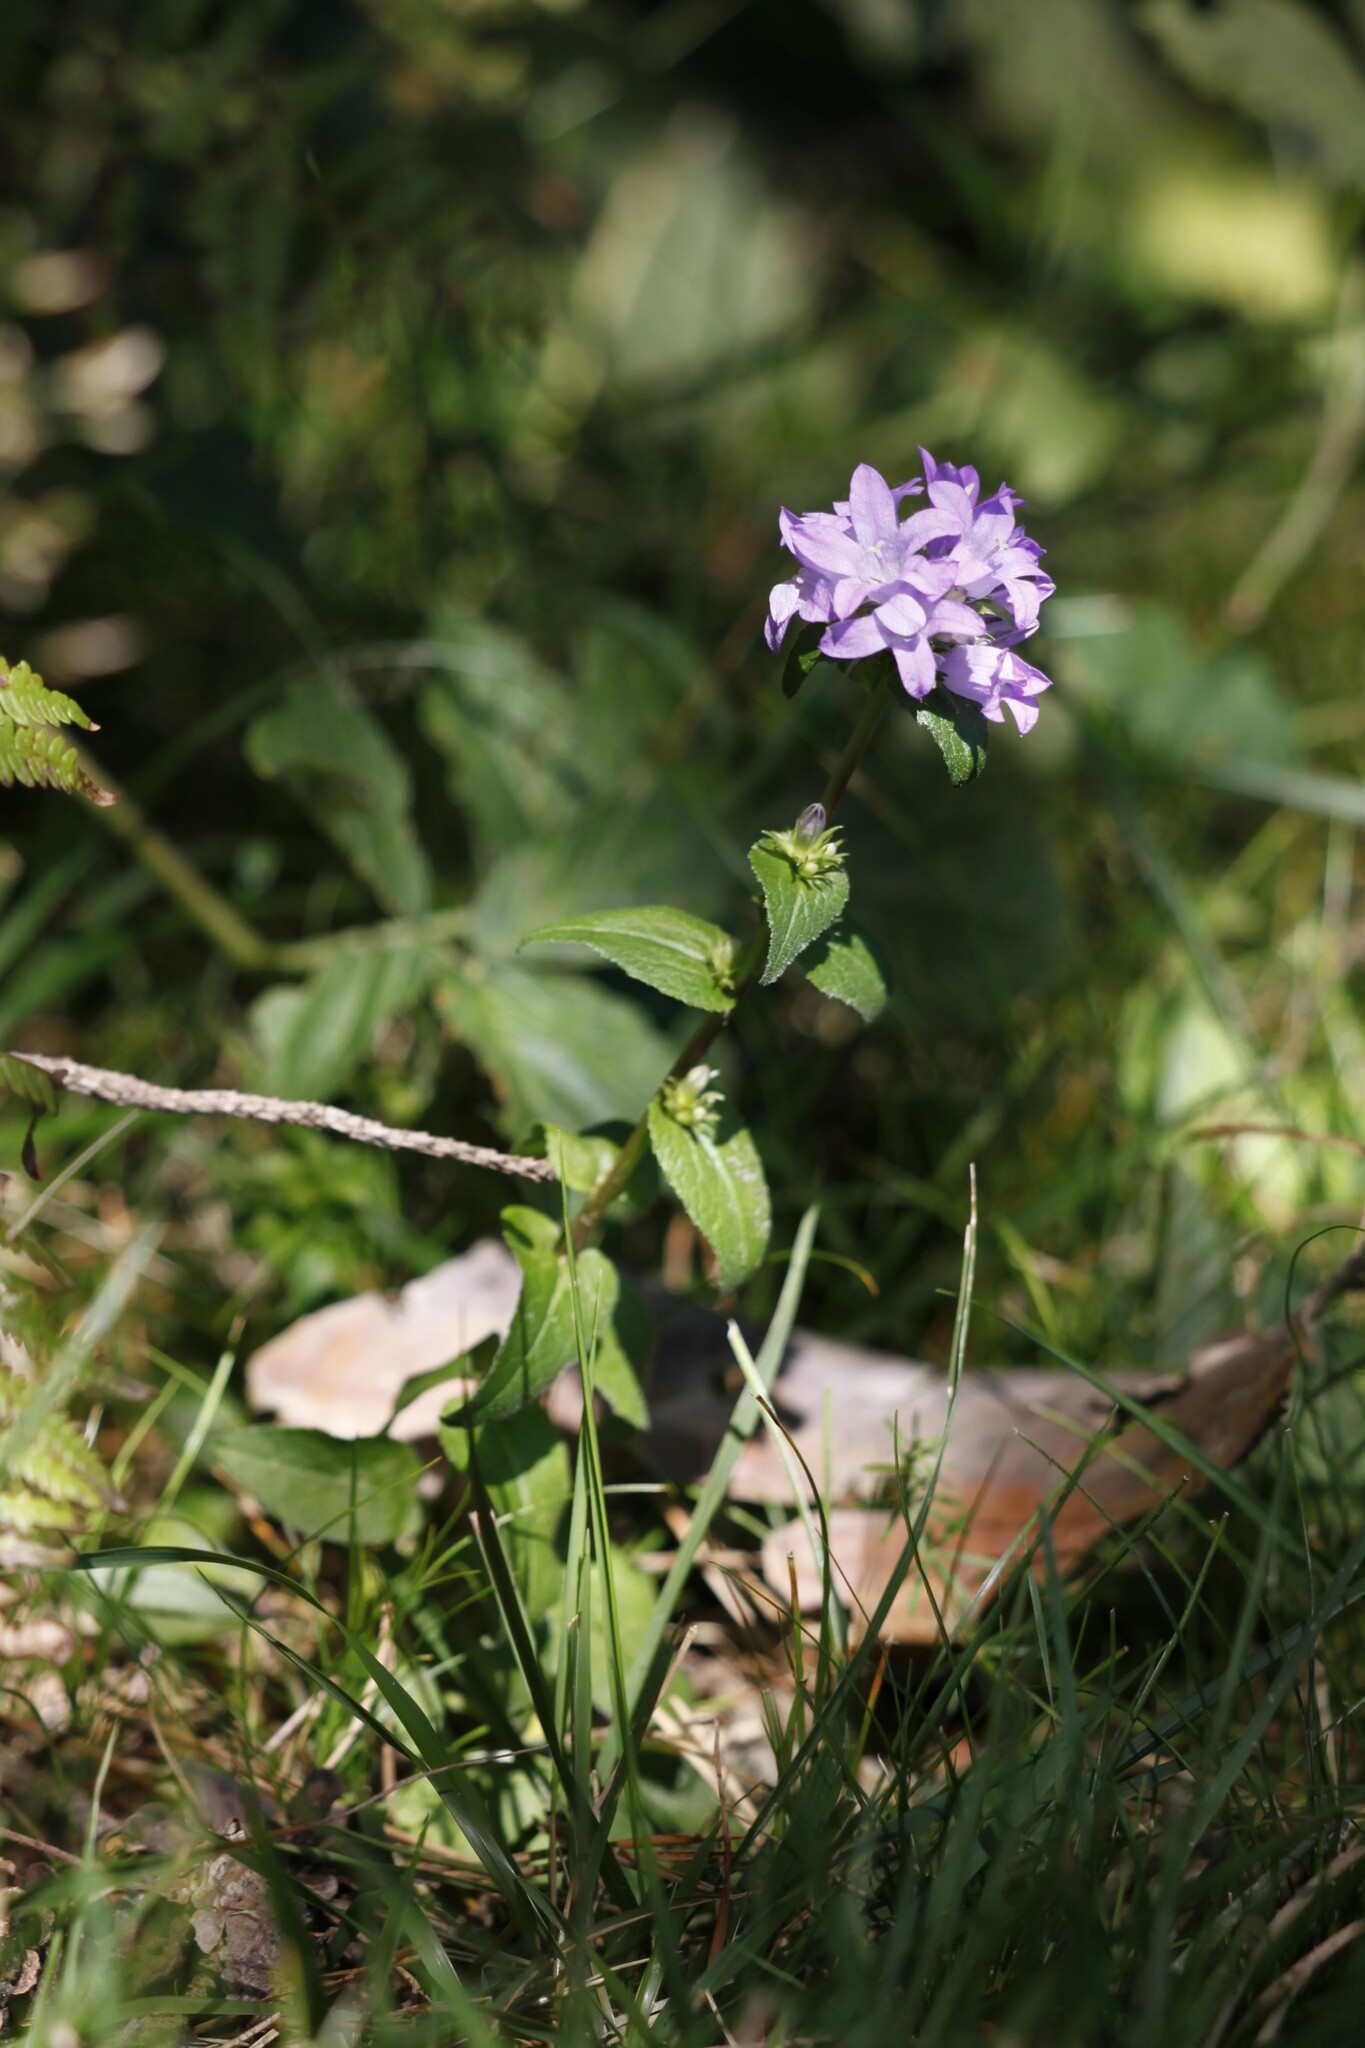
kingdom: Plantae
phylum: Tracheophyta
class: Magnoliopsida
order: Asterales
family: Campanulaceae
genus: Campanula
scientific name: Campanula glomerata
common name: Clustered bellflower
